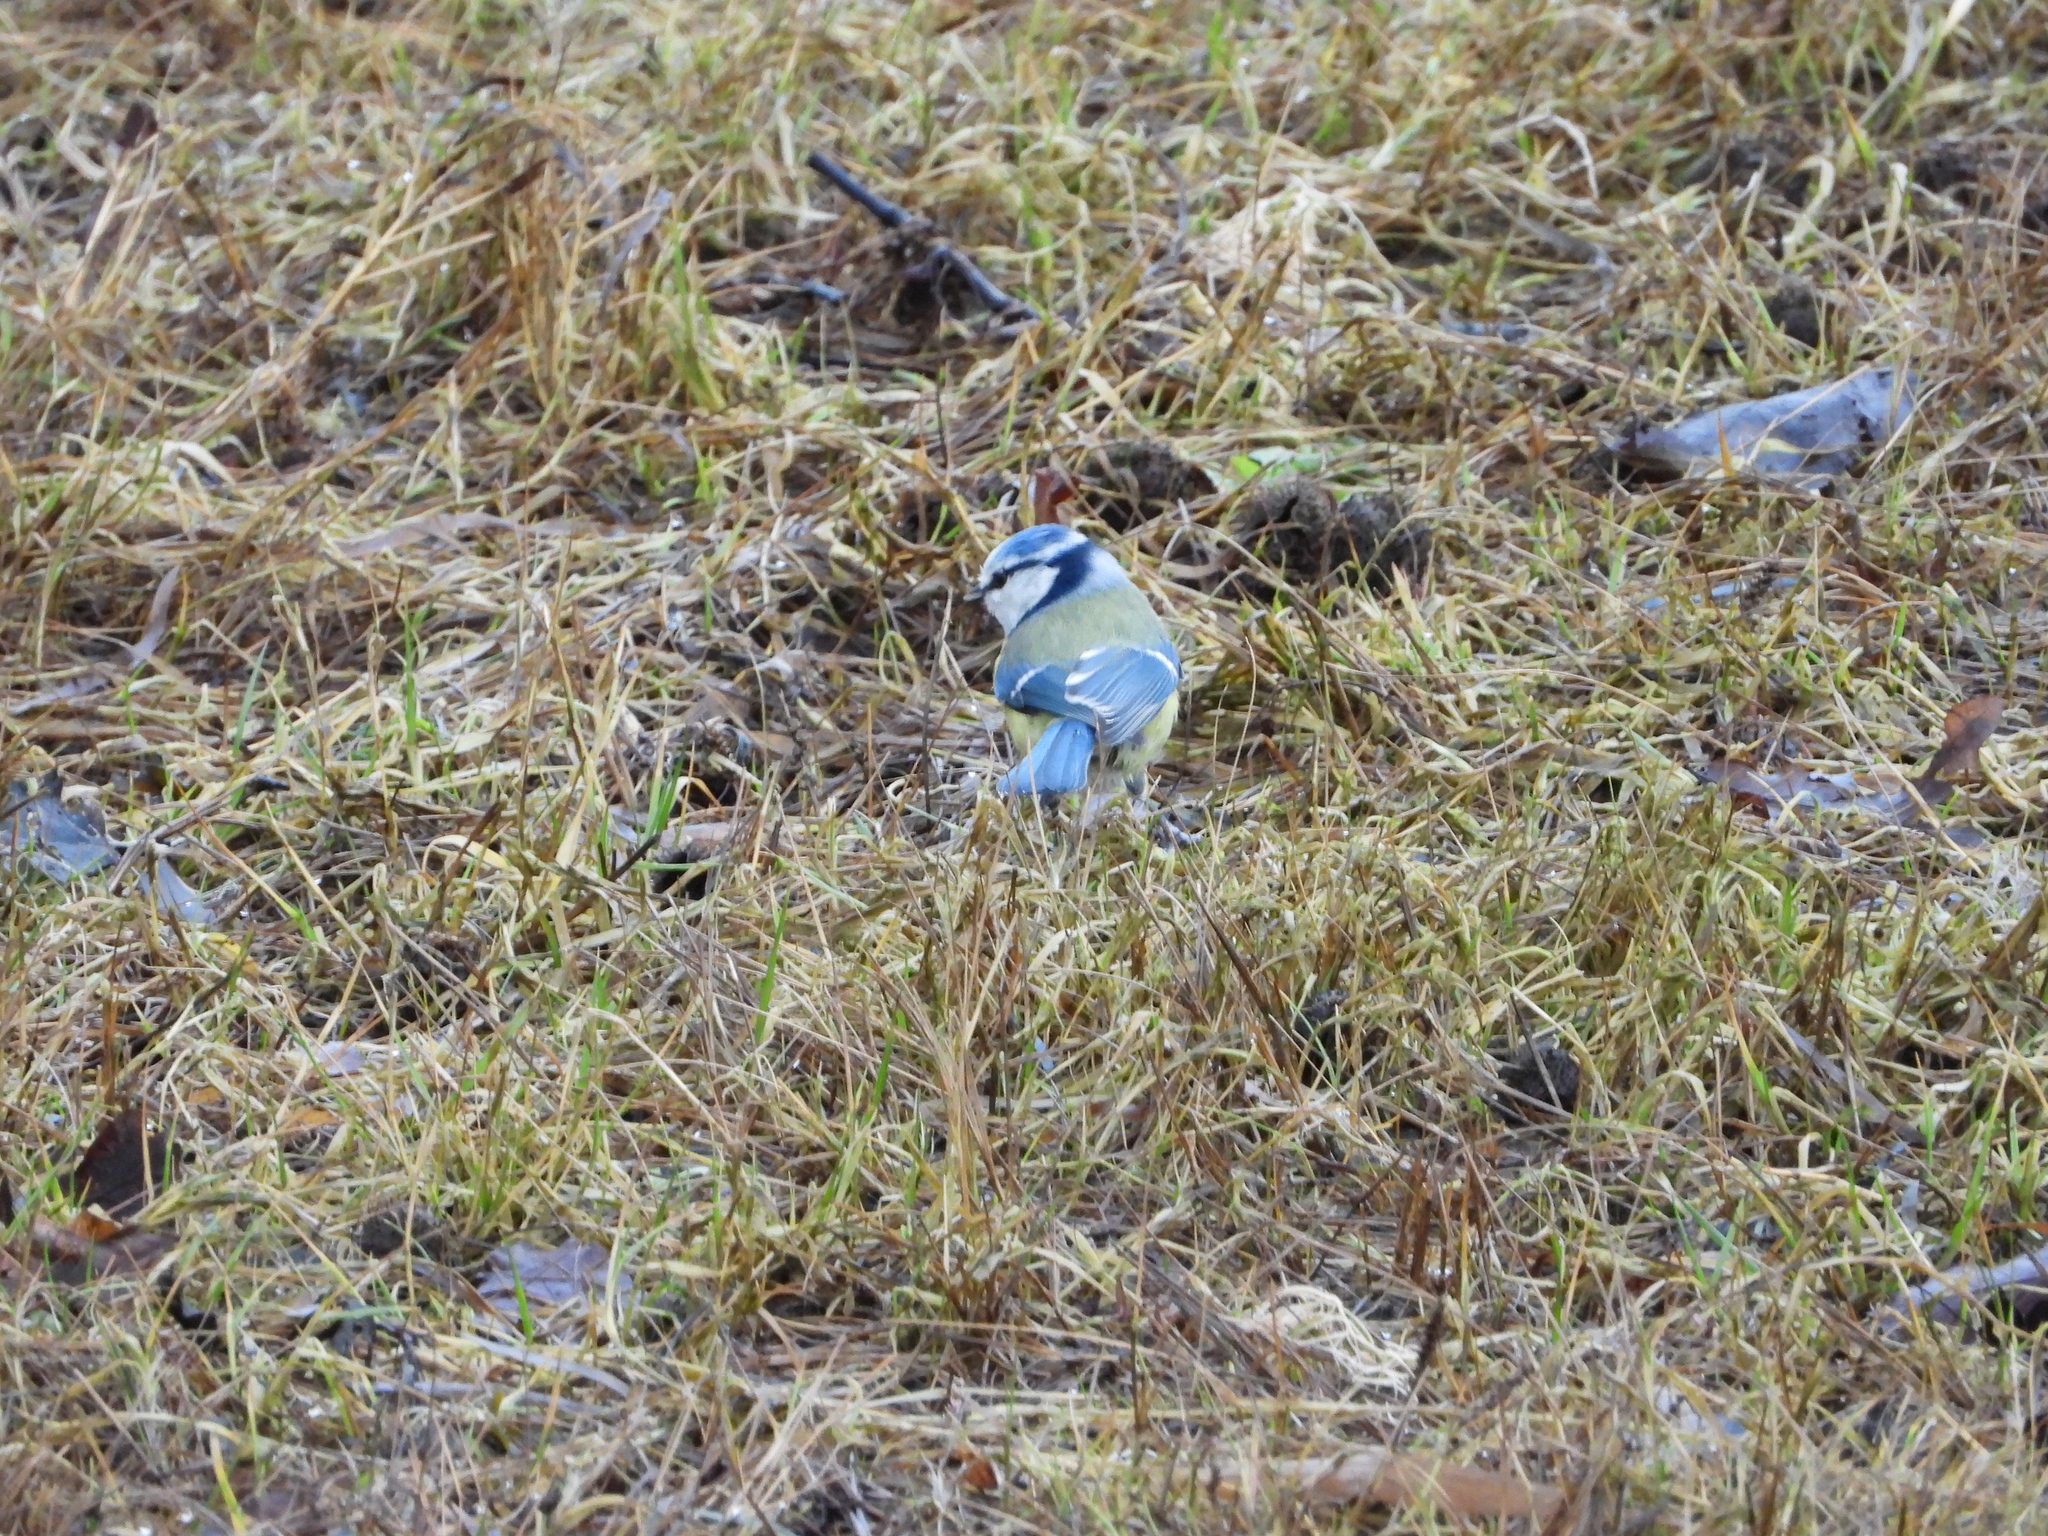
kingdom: Animalia
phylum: Chordata
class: Aves
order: Passeriformes
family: Paridae
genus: Cyanistes
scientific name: Cyanistes caeruleus
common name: Eurasian blue tit
